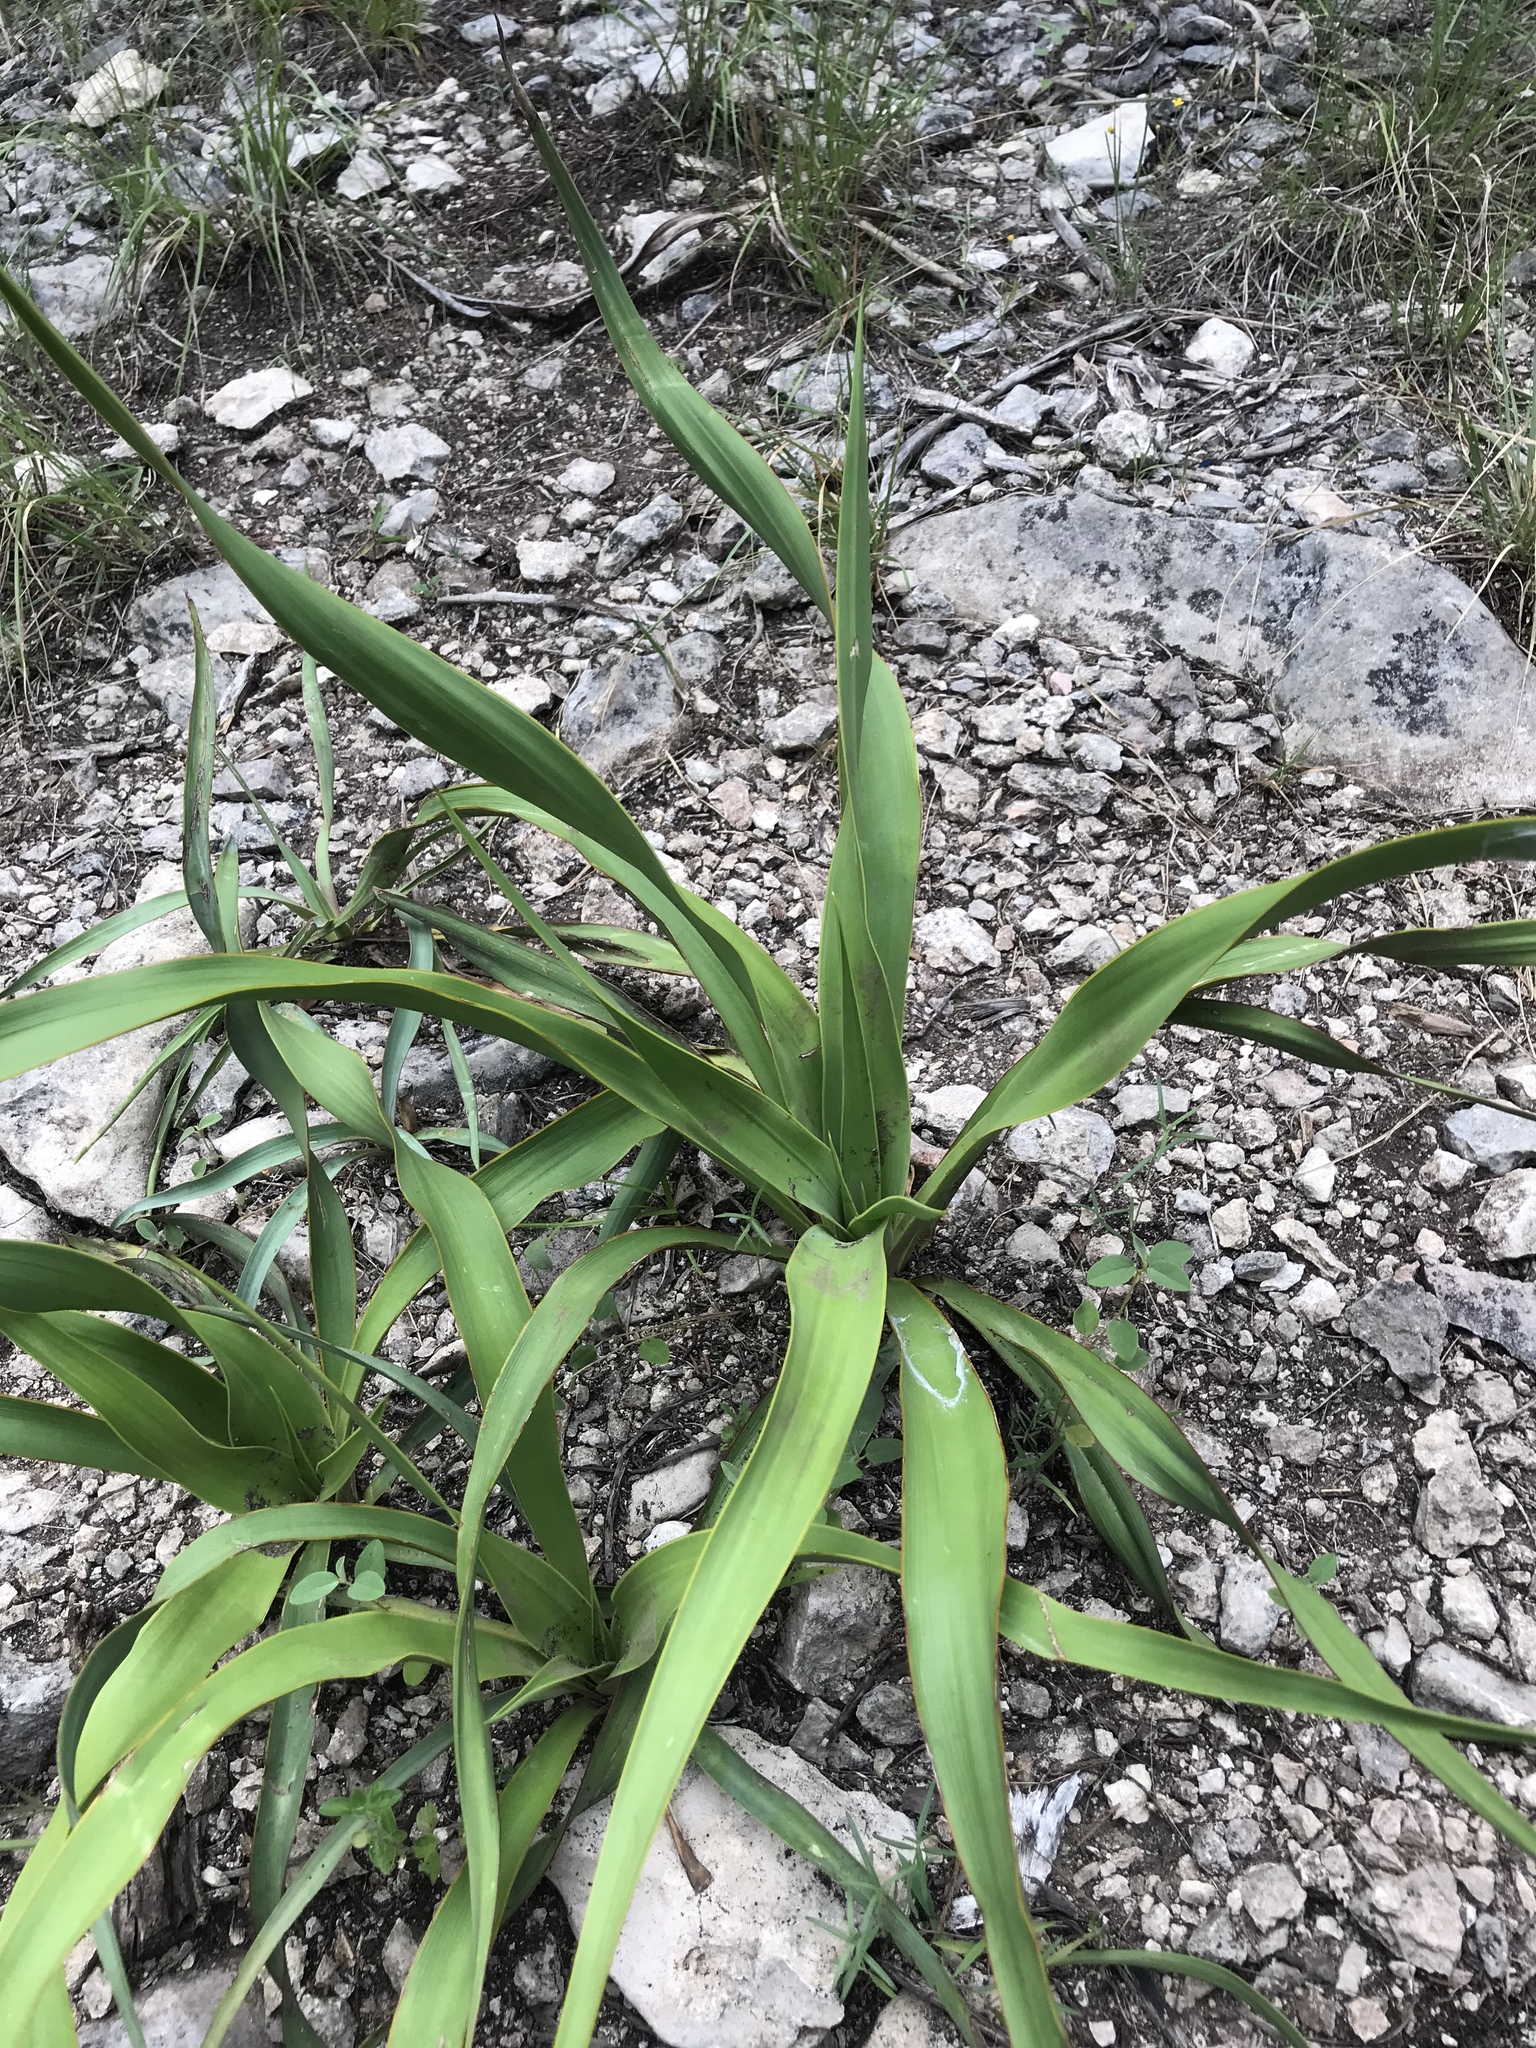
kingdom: Plantae
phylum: Tracheophyta
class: Liliopsida
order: Asparagales
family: Asparagaceae
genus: Yucca
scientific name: Yucca rupicola
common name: Twisted-leaf spanish-dagger
